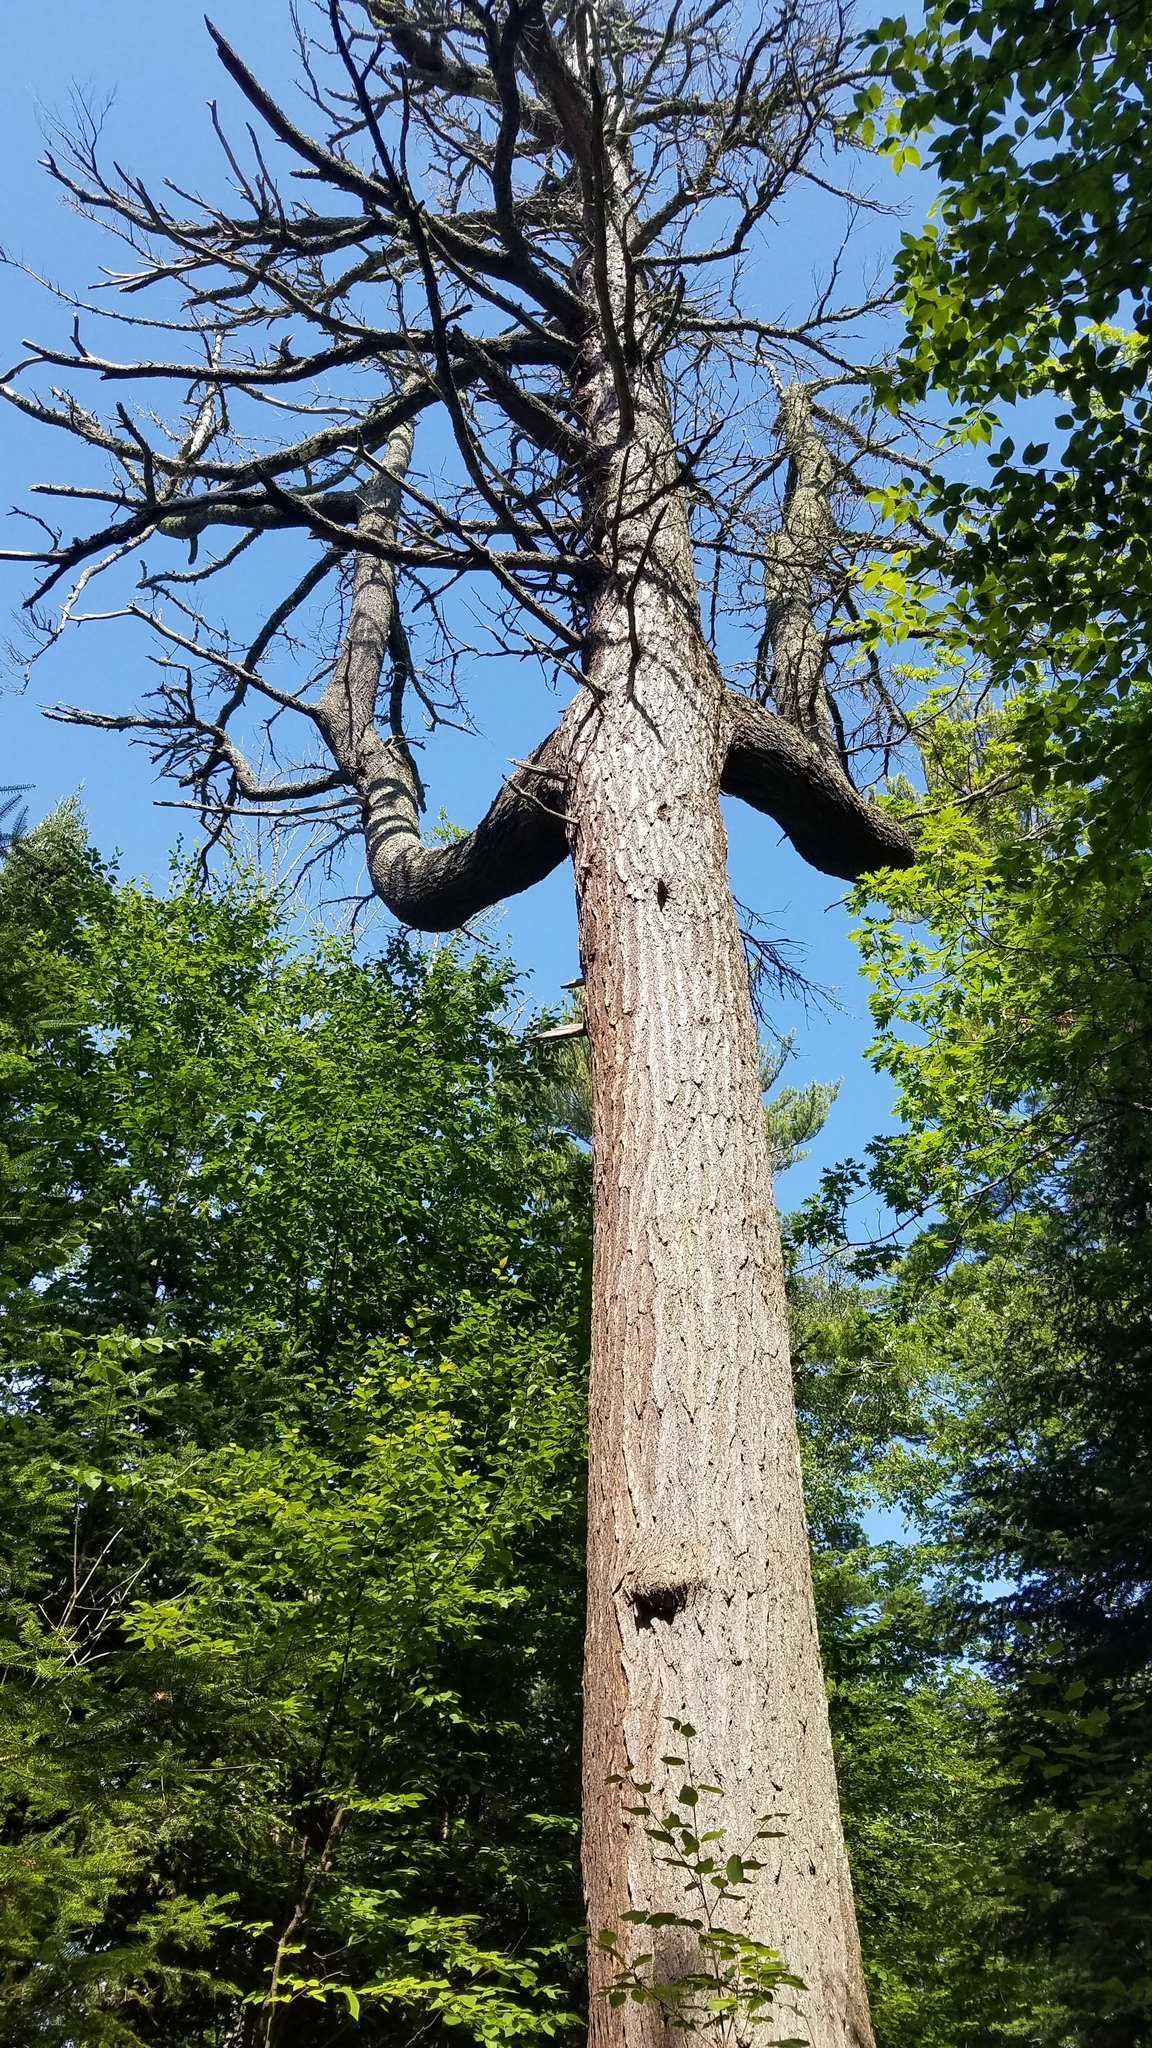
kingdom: Plantae
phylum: Tracheophyta
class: Pinopsida
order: Pinales
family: Pinaceae
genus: Pinus
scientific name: Pinus strobus
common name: Weymouth pine
